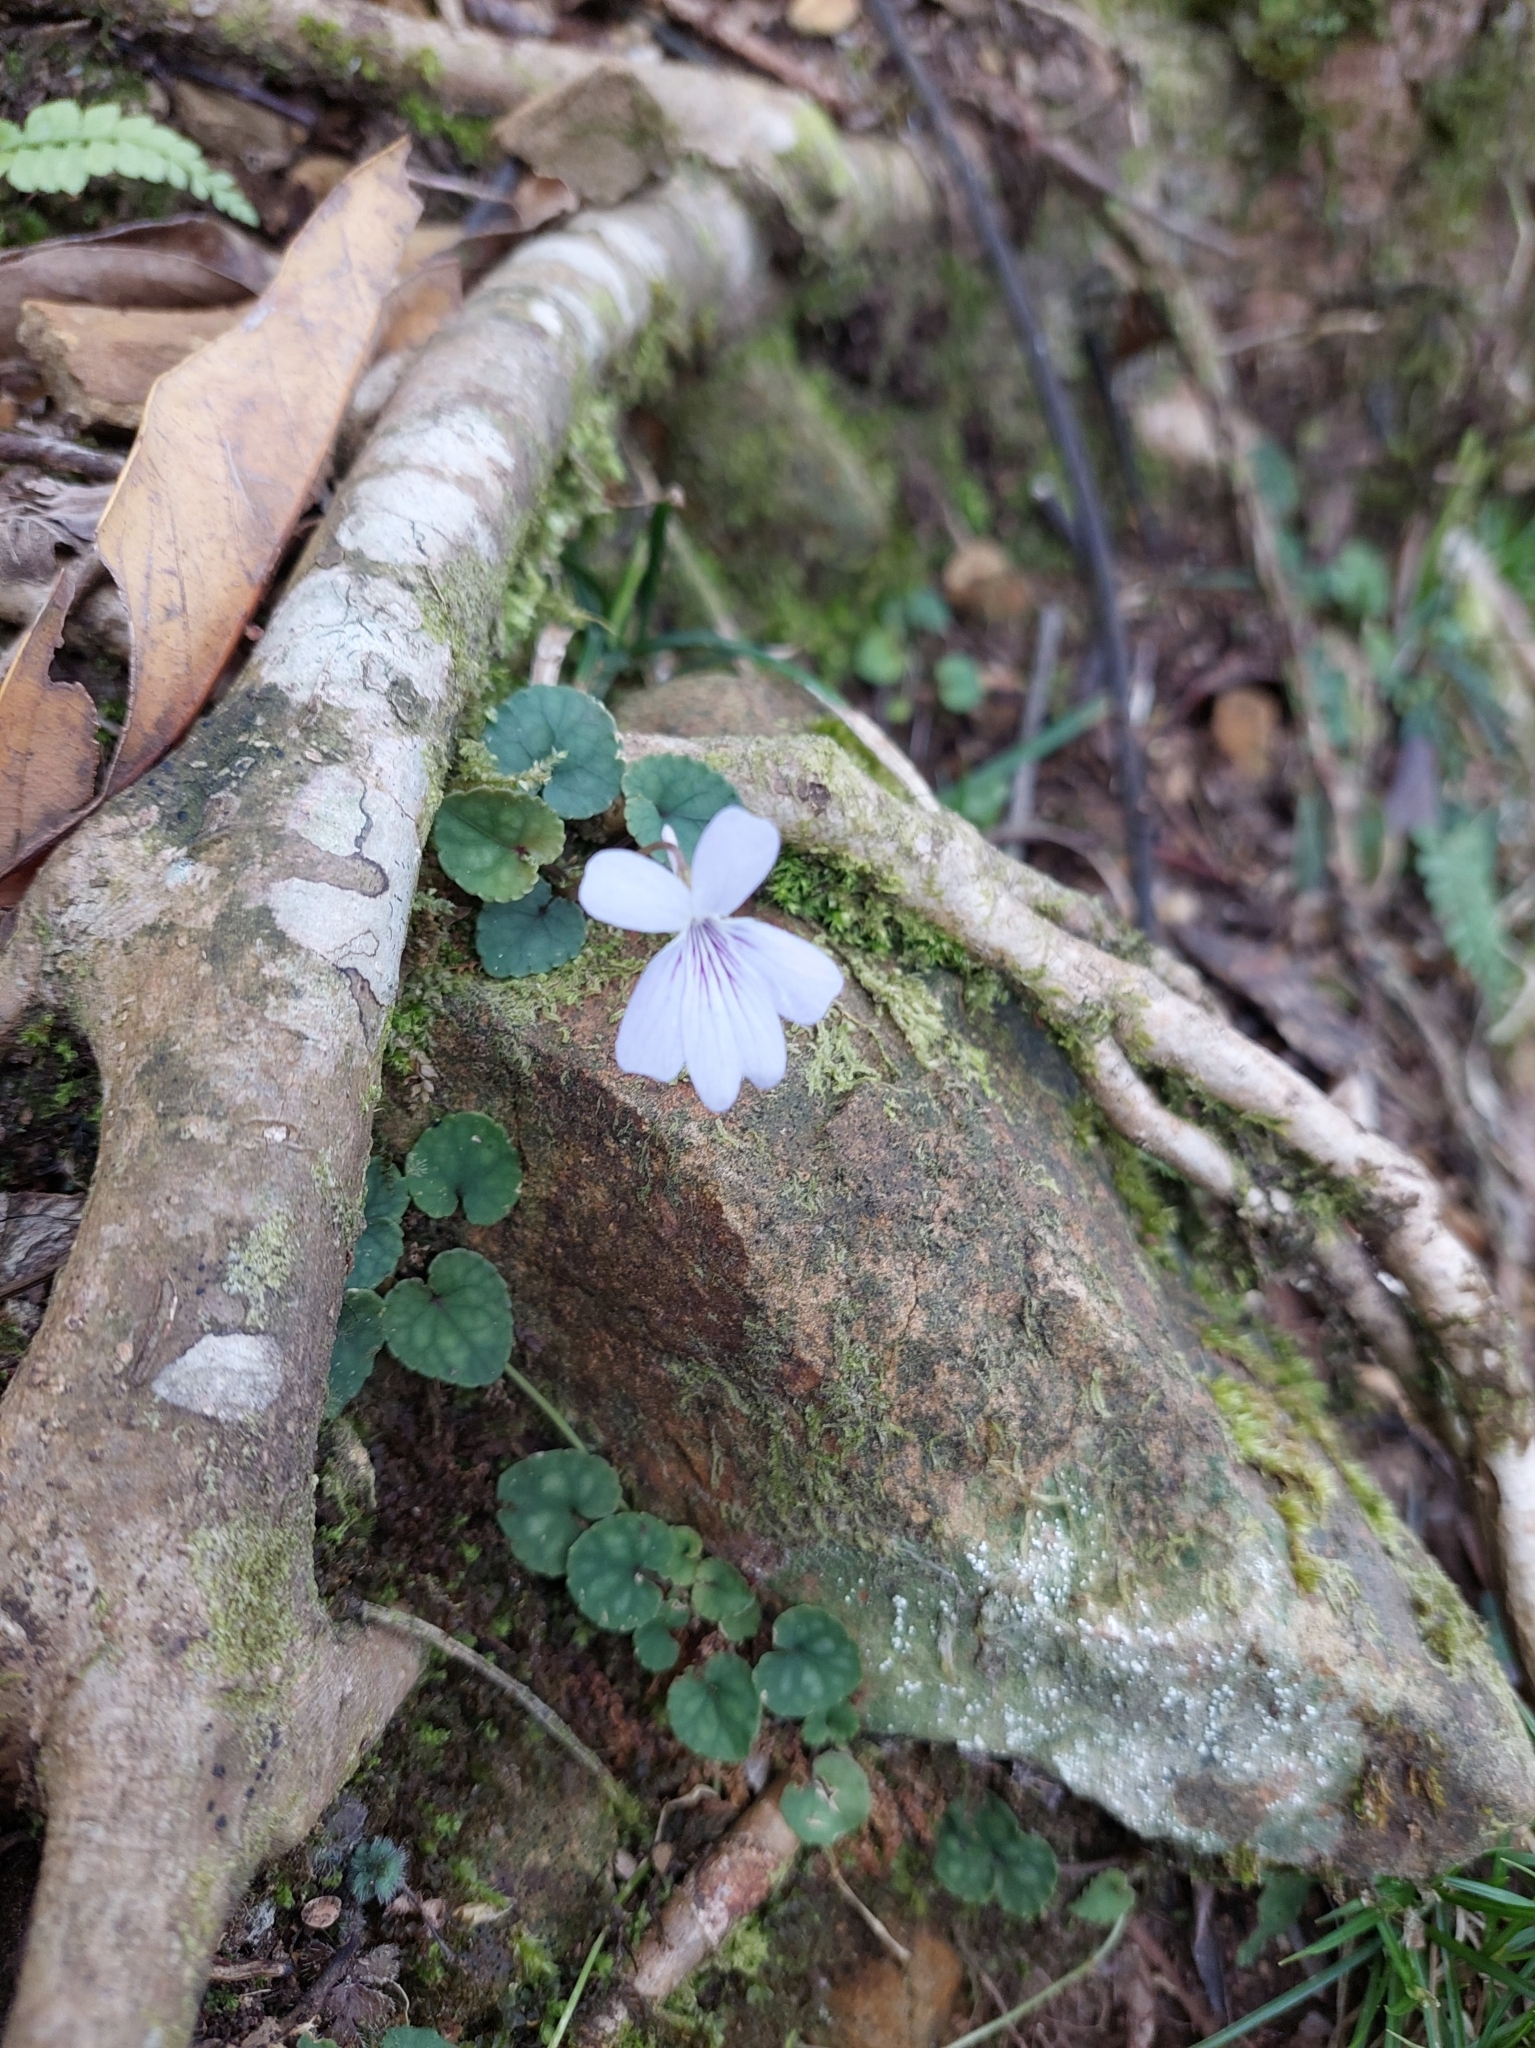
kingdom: Plantae
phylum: Tracheophyta
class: Magnoliopsida
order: Malpighiales
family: Violaceae
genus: Viola
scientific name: Viola formosana
